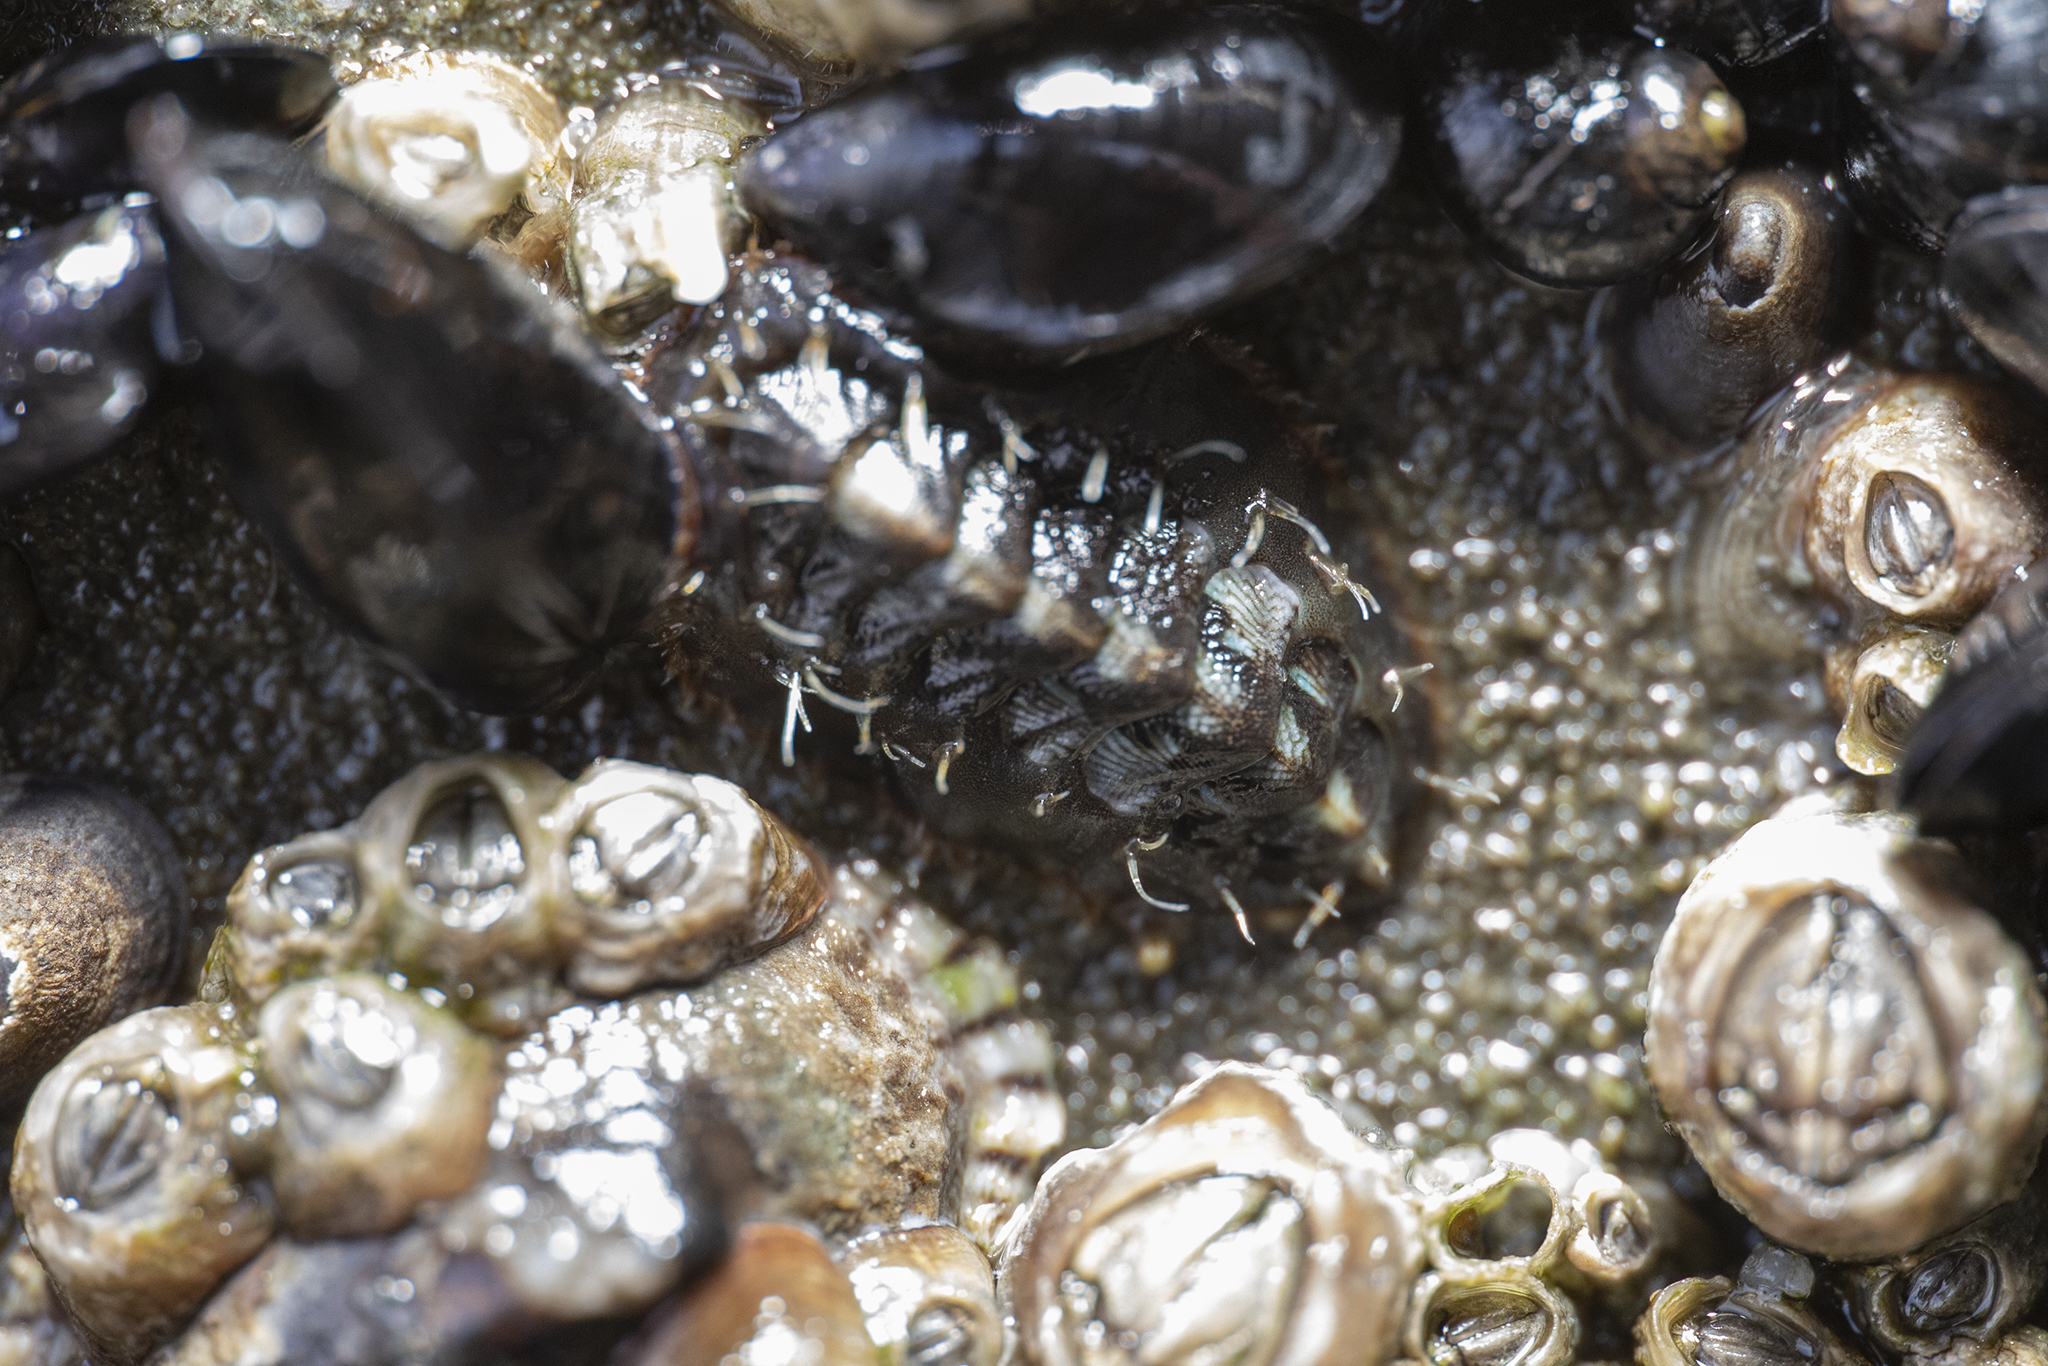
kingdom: Animalia
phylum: Mollusca
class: Polyplacophora
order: Chitonida
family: Mopaliidae
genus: Plaxiphora
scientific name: Plaxiphora caelata
